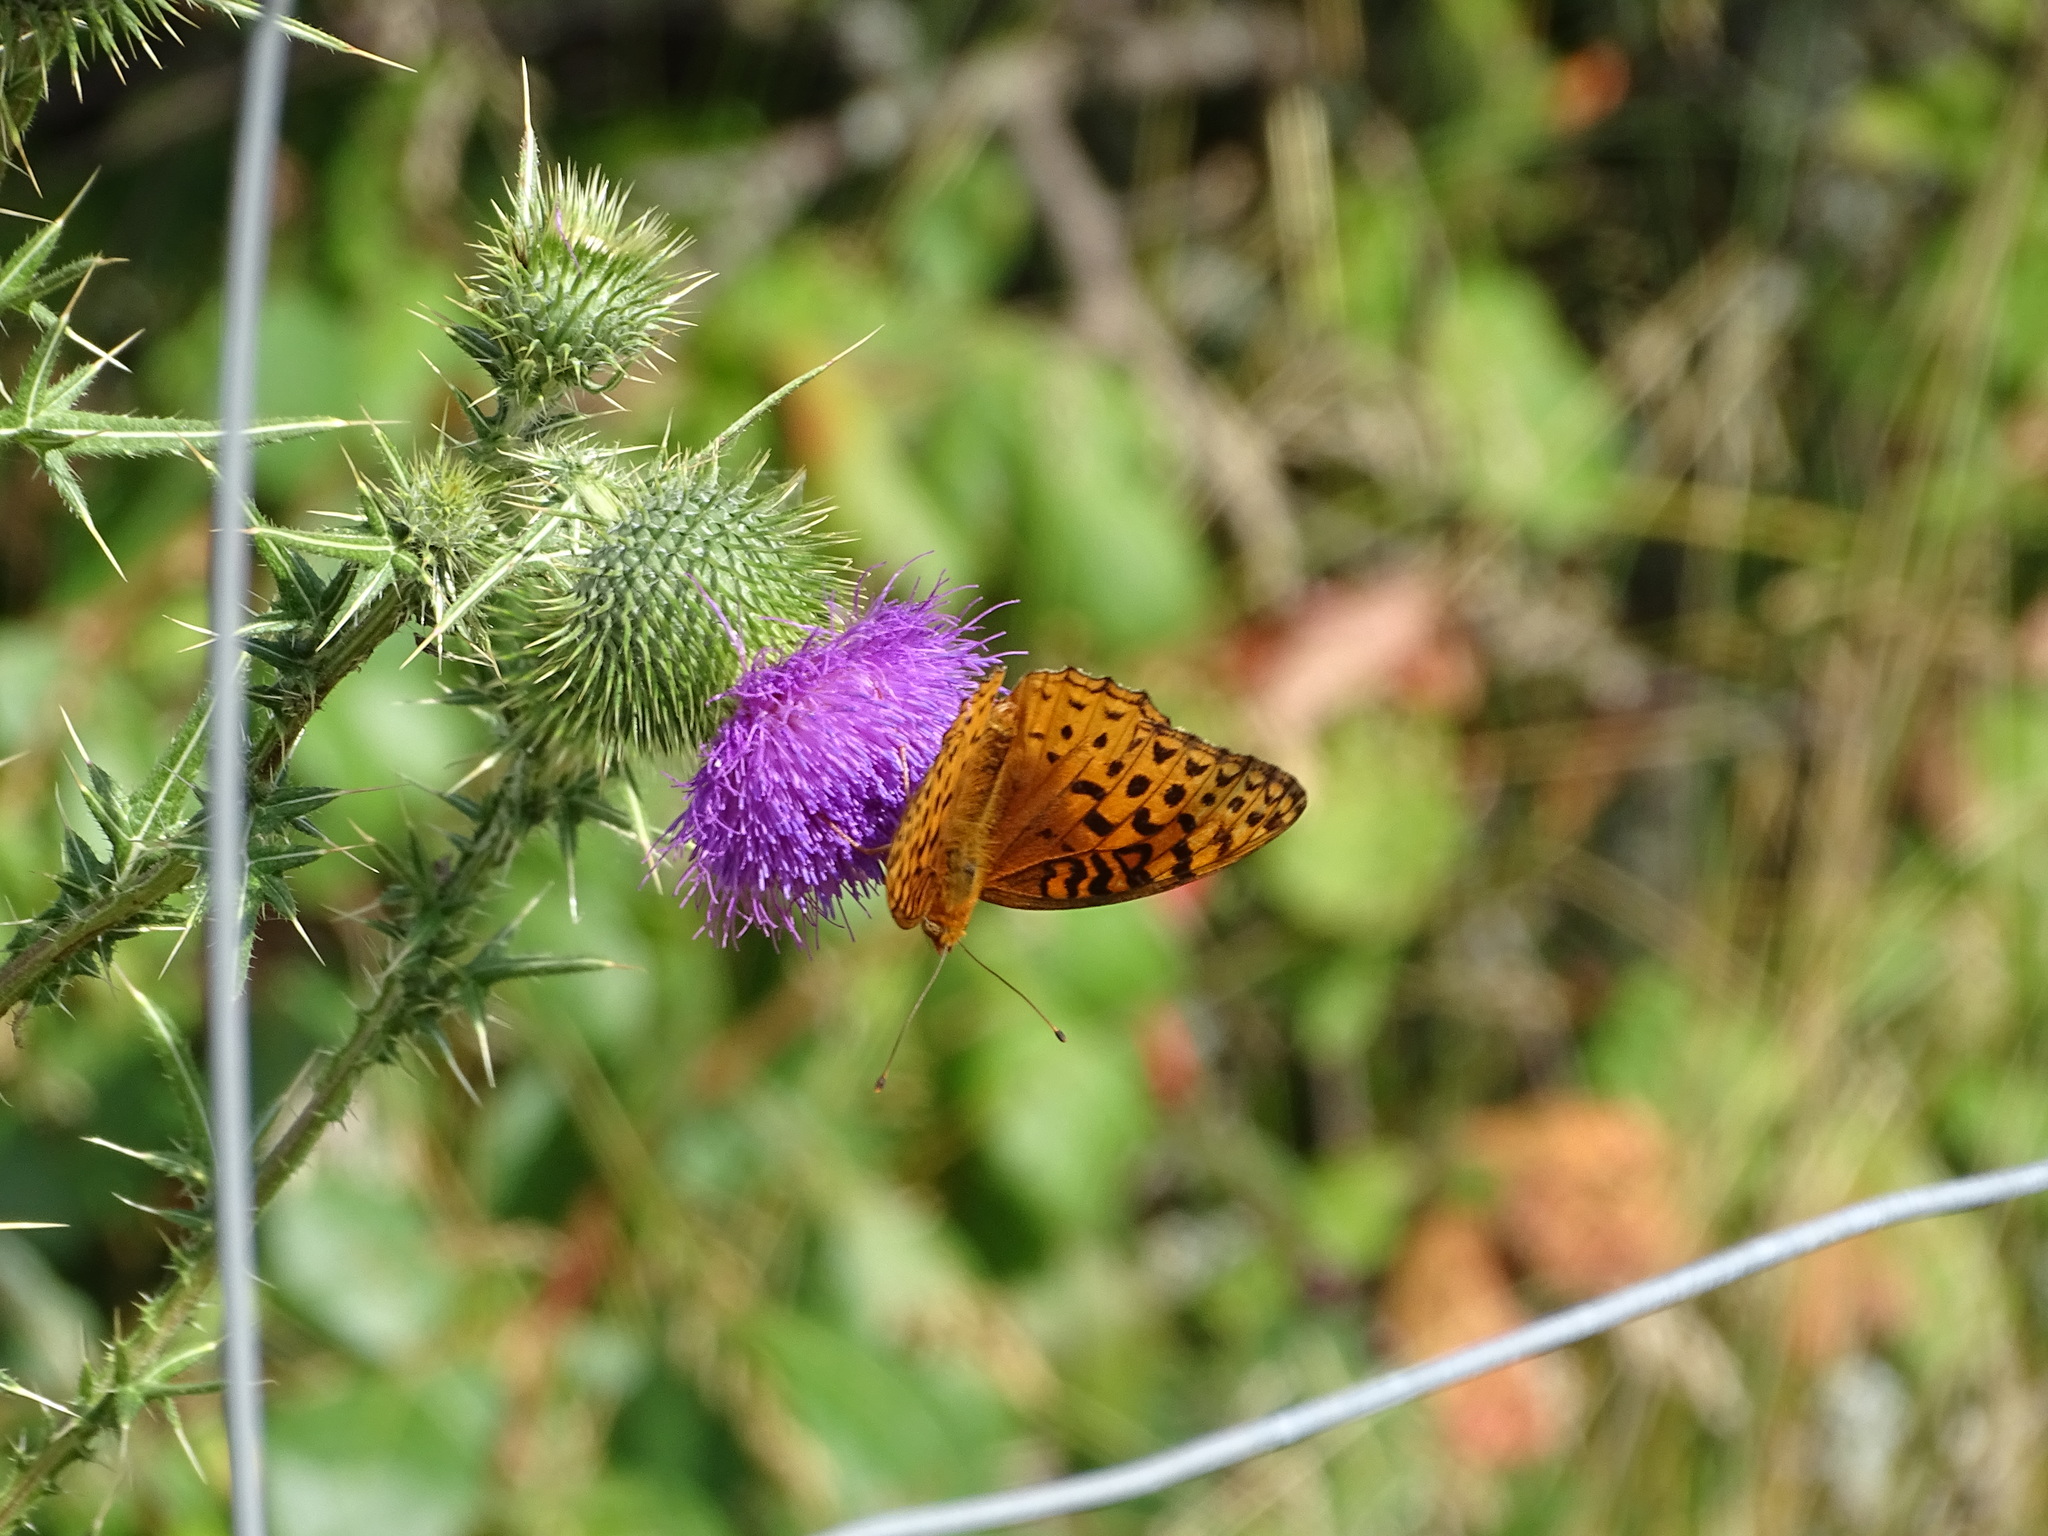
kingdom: Animalia
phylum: Arthropoda
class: Insecta
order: Lepidoptera
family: Nymphalidae
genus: Speyeria
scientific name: Speyeria aphrodite
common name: Aphrodite friitllary
